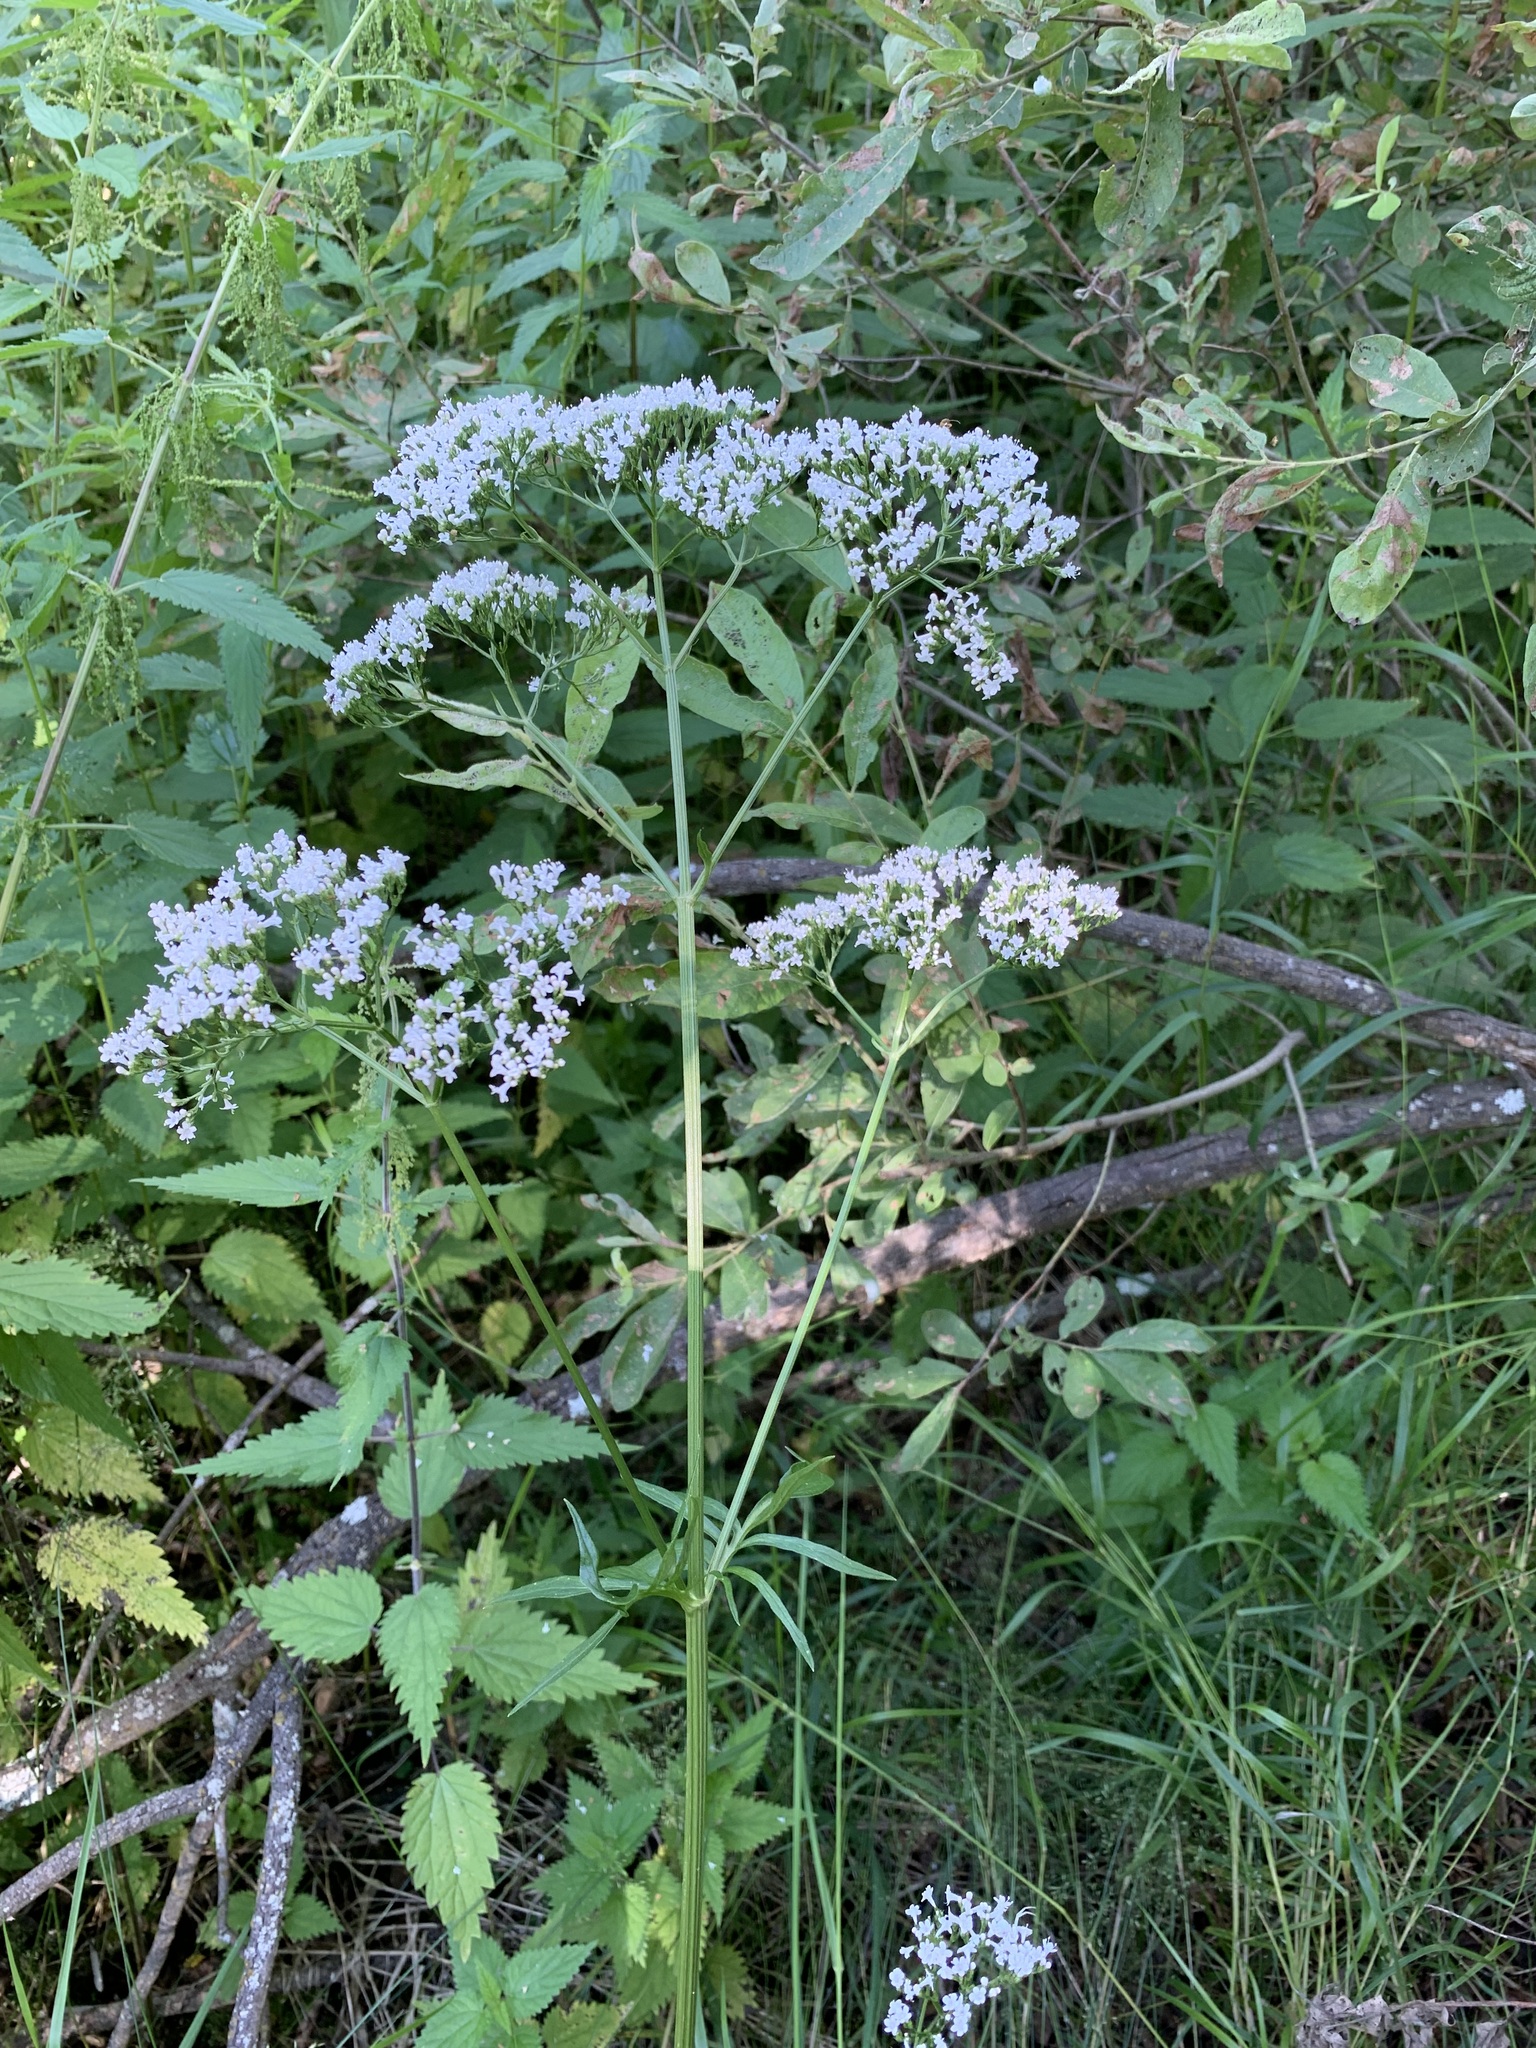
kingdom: Plantae
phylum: Tracheophyta
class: Magnoliopsida
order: Dipsacales
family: Caprifoliaceae
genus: Valeriana
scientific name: Valeriana wolgensis
